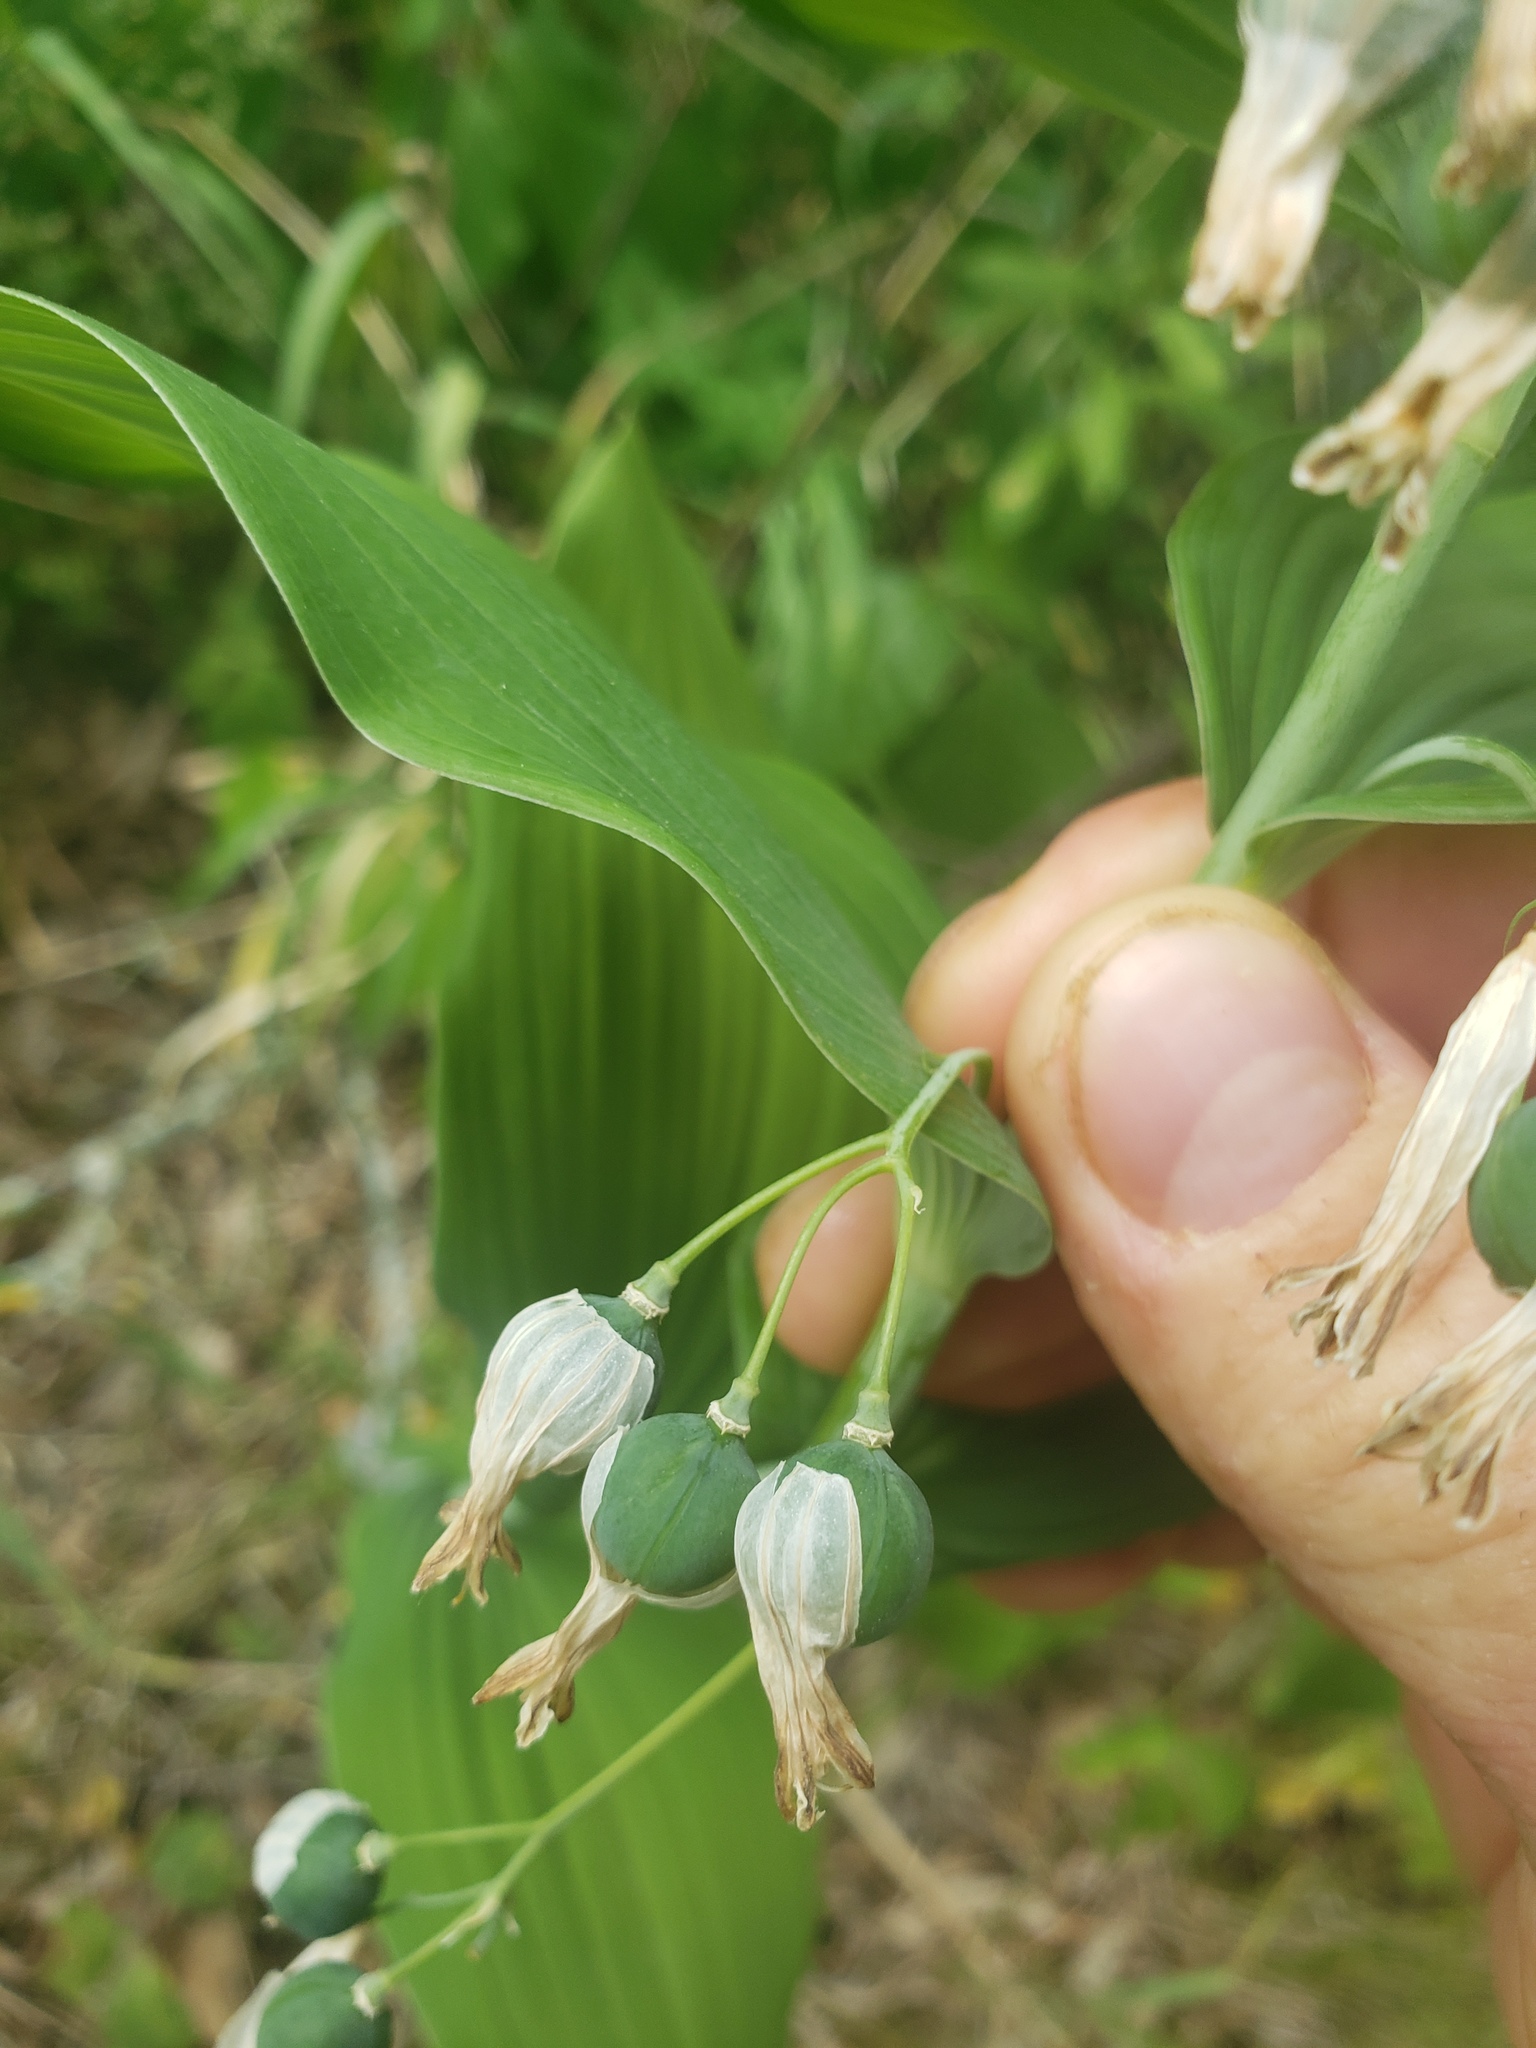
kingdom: Plantae
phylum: Tracheophyta
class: Liliopsida
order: Asparagales
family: Asparagaceae
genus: Polygonatum
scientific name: Polygonatum biflorum
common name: American solomon's-seal
